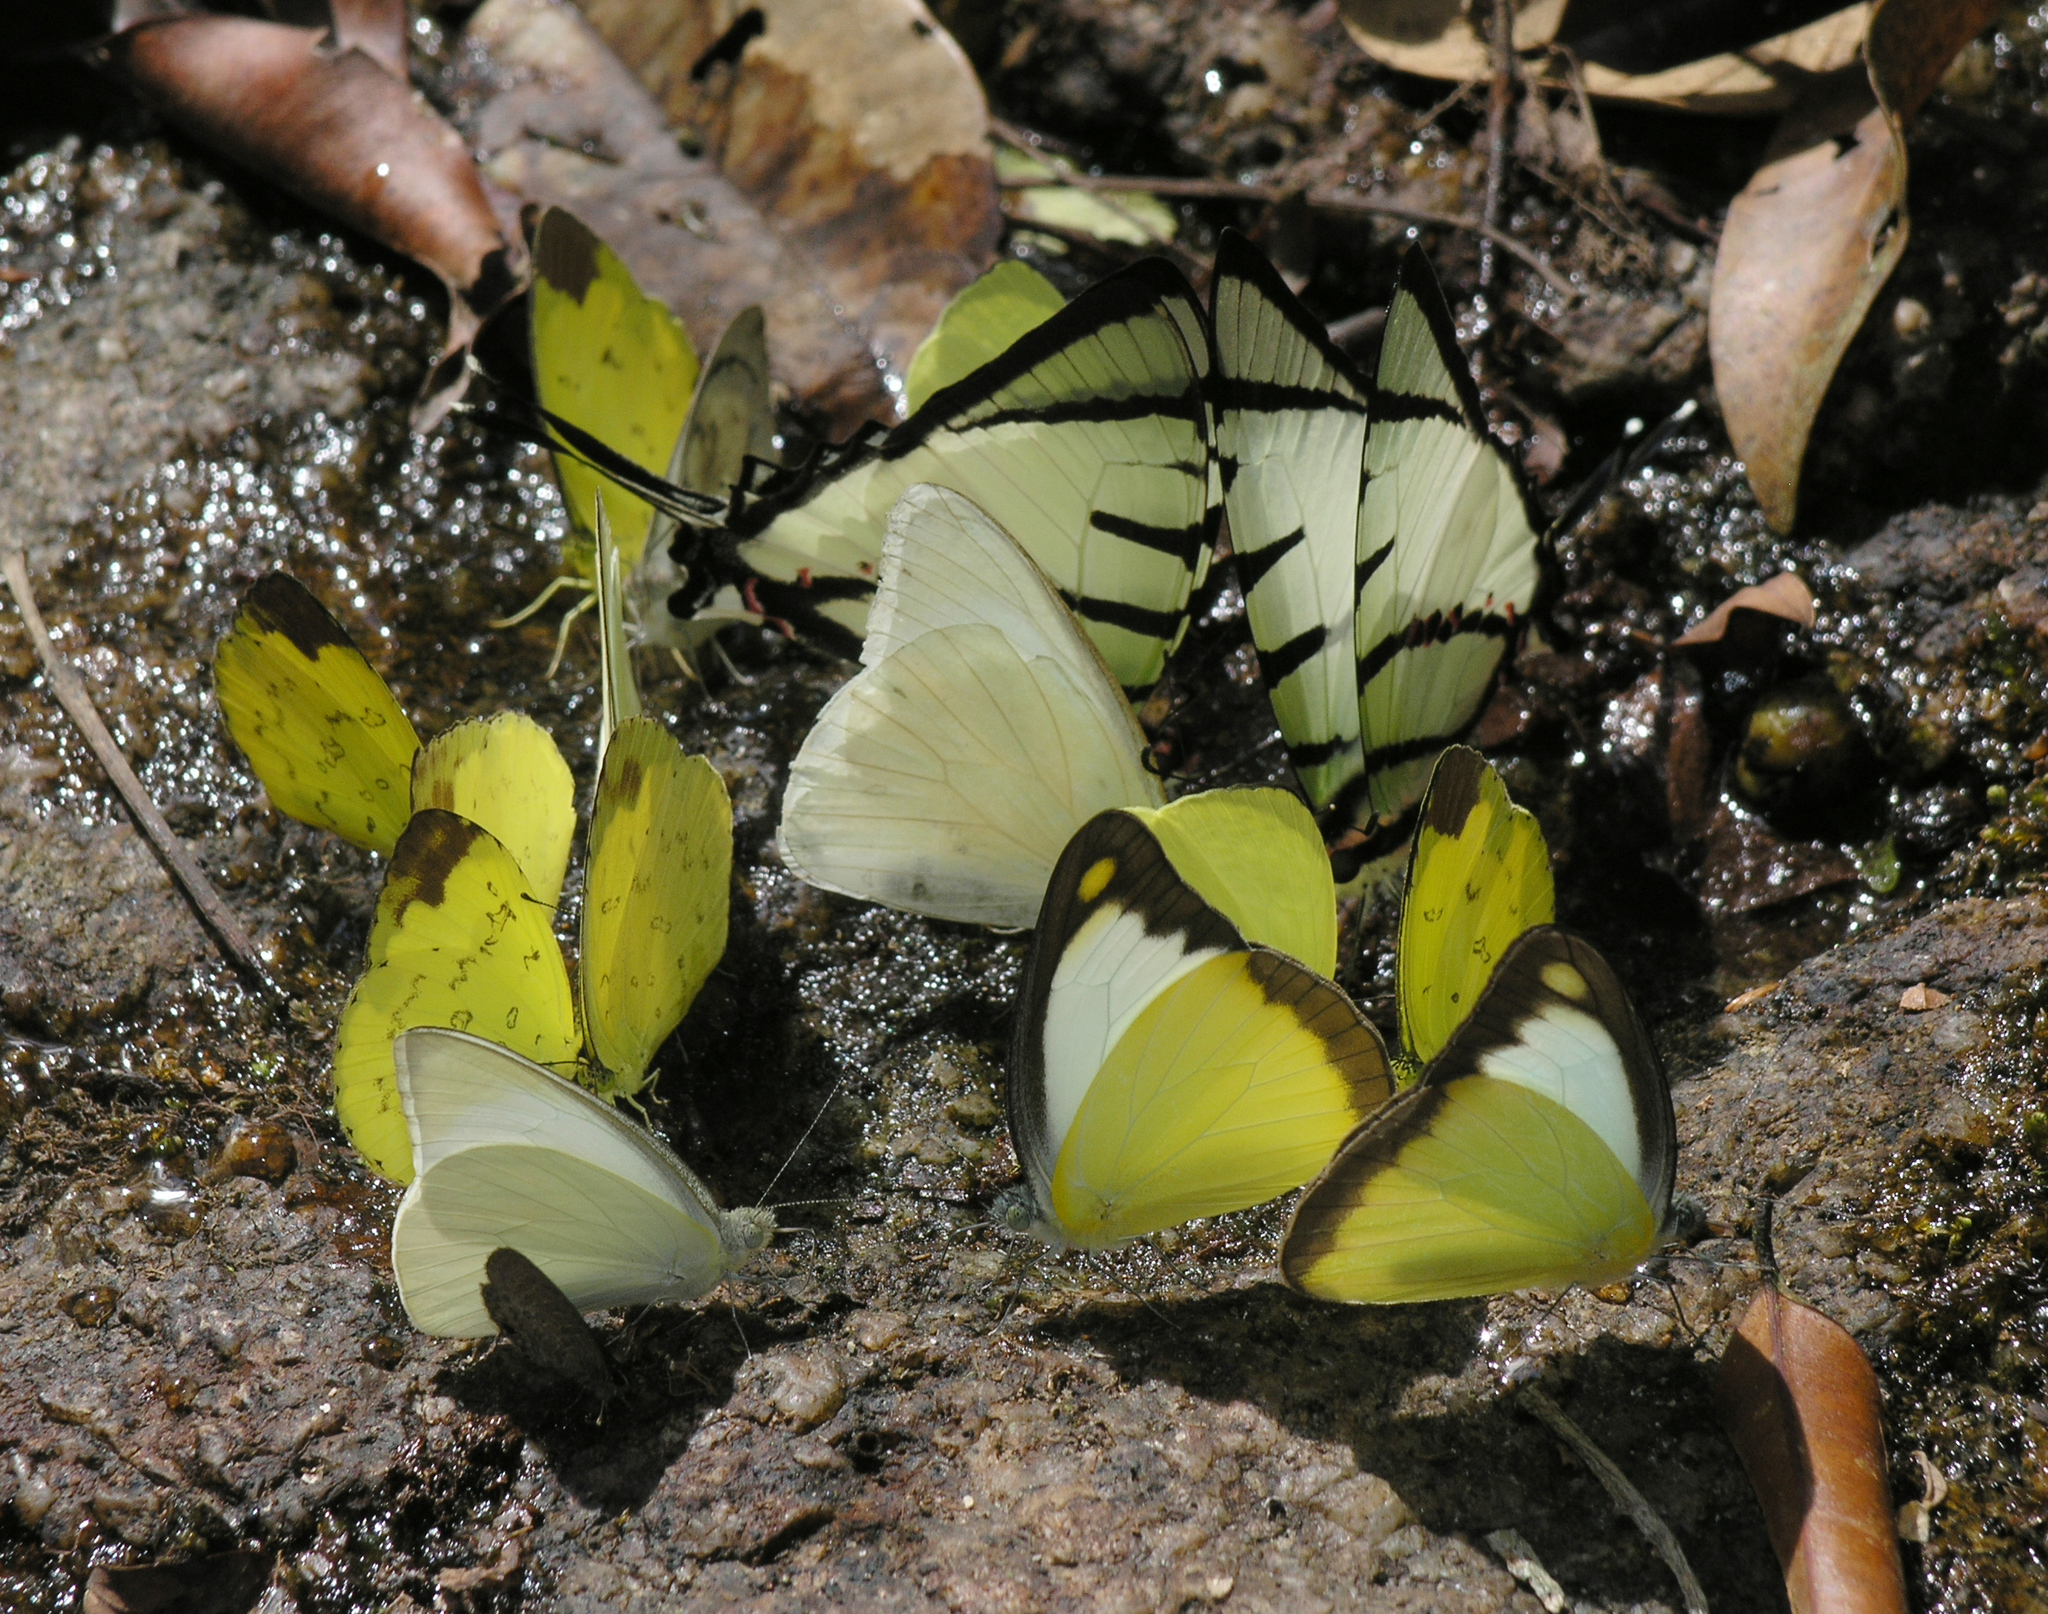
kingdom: Animalia
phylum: Arthropoda
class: Insecta
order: Lepidoptera
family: Papilionidae
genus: Graphium
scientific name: Graphium agetes
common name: Fourbar swordtail
